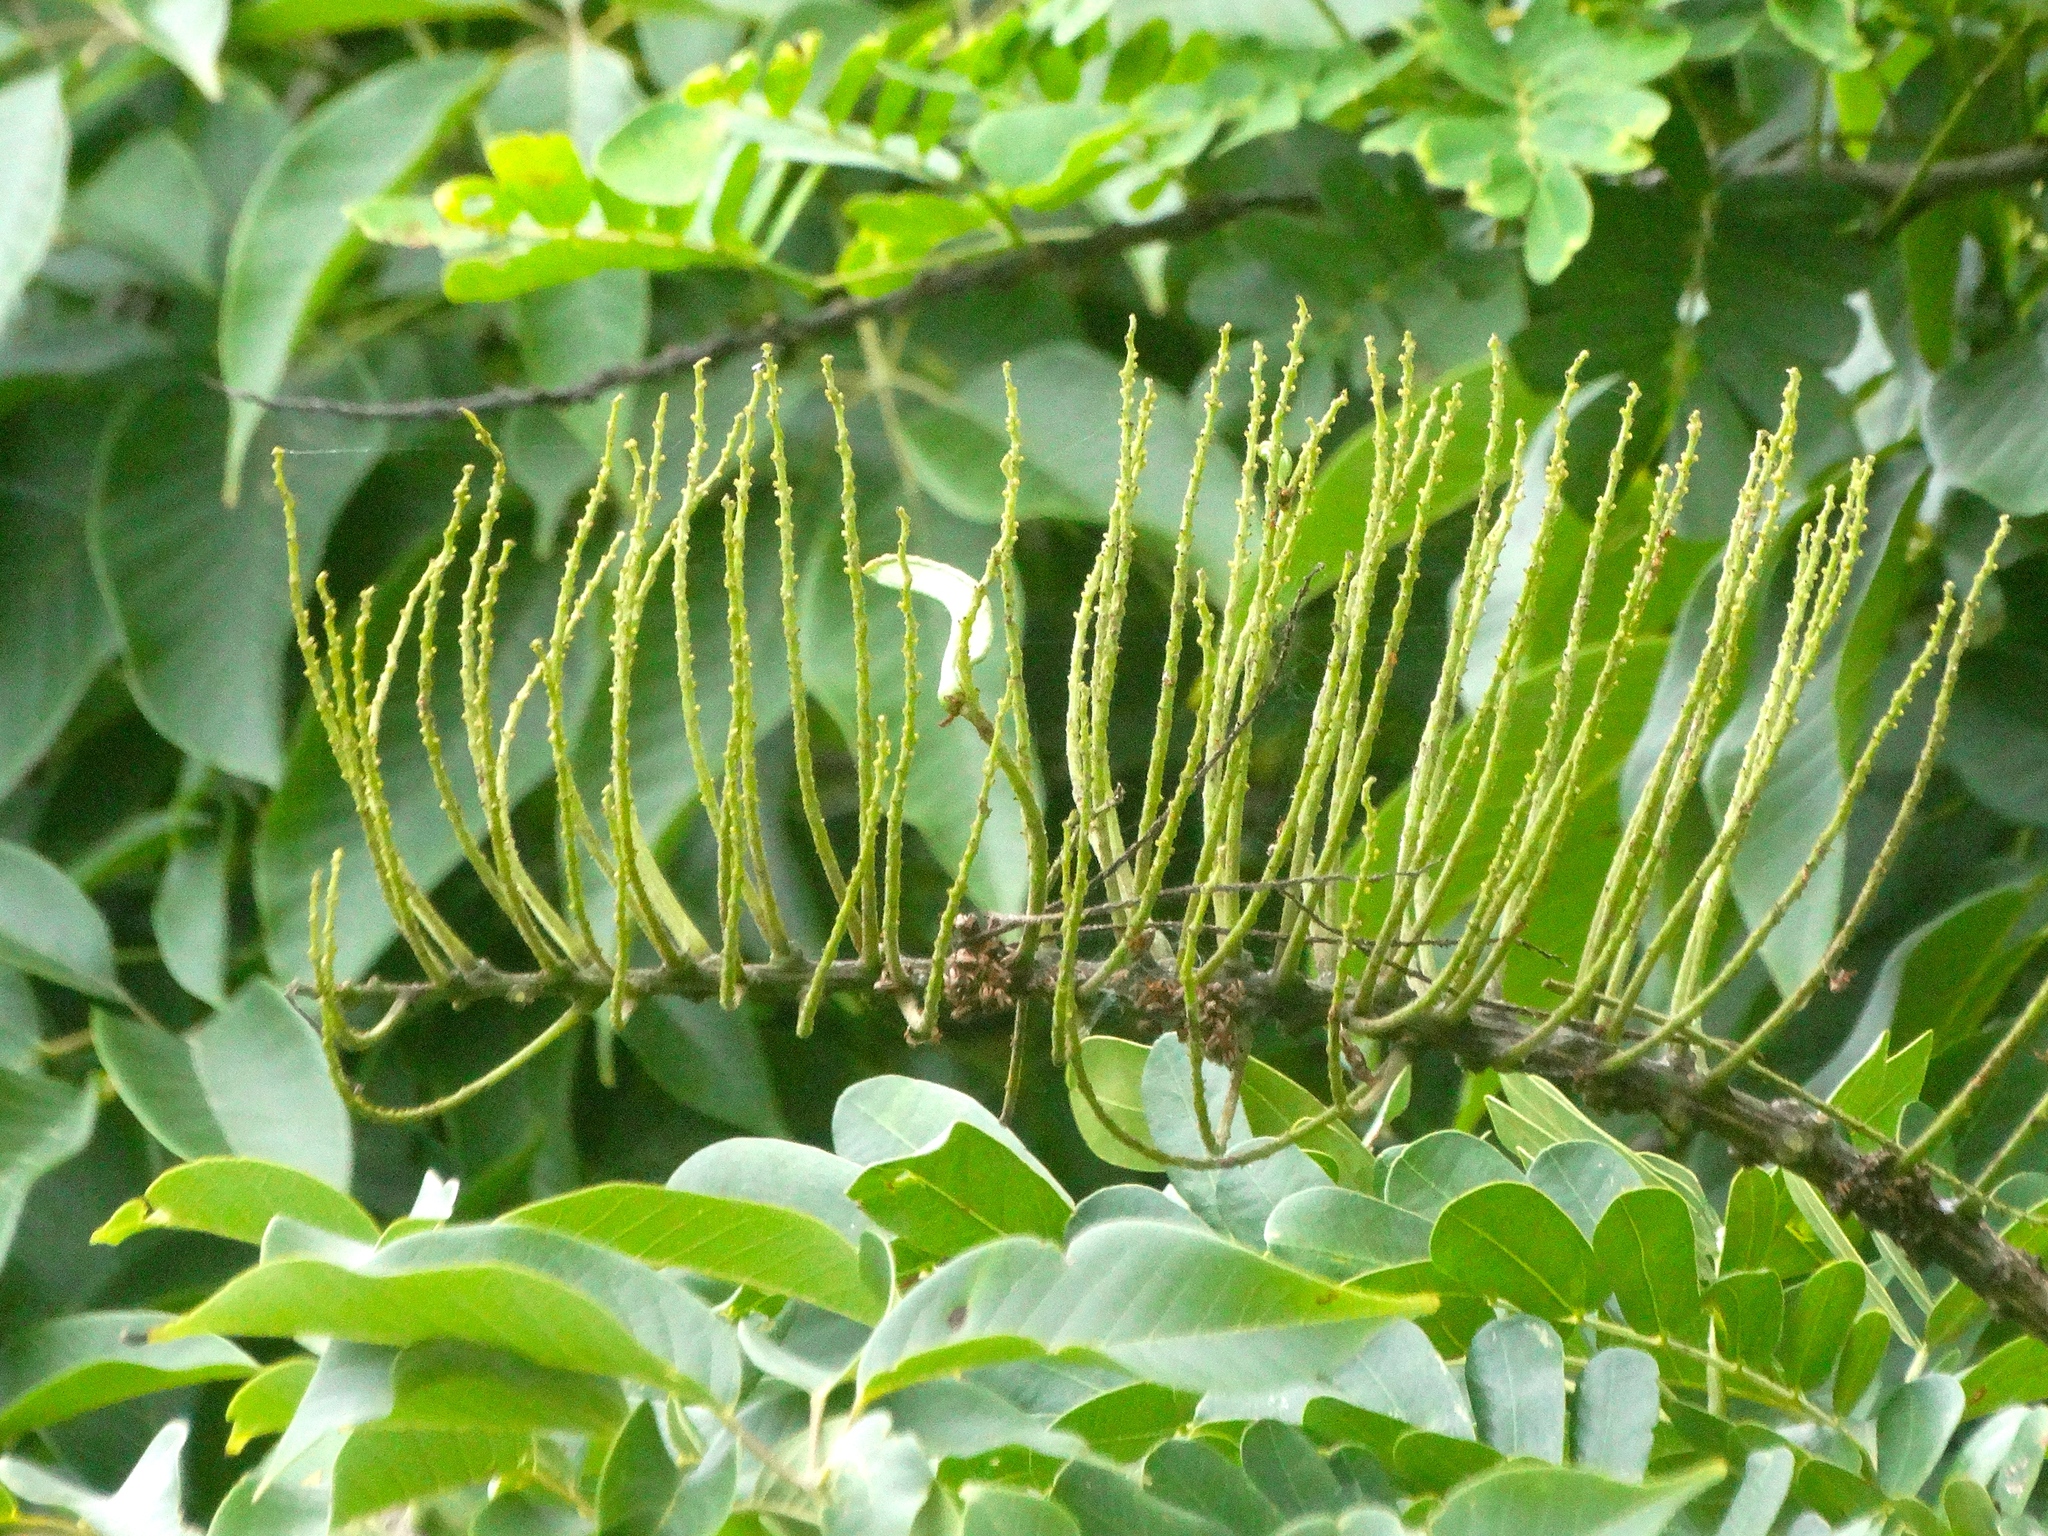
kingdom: Plantae
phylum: Tracheophyta
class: Magnoliopsida
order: Fabales
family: Fabaceae
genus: Entada
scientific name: Entada polystachya
